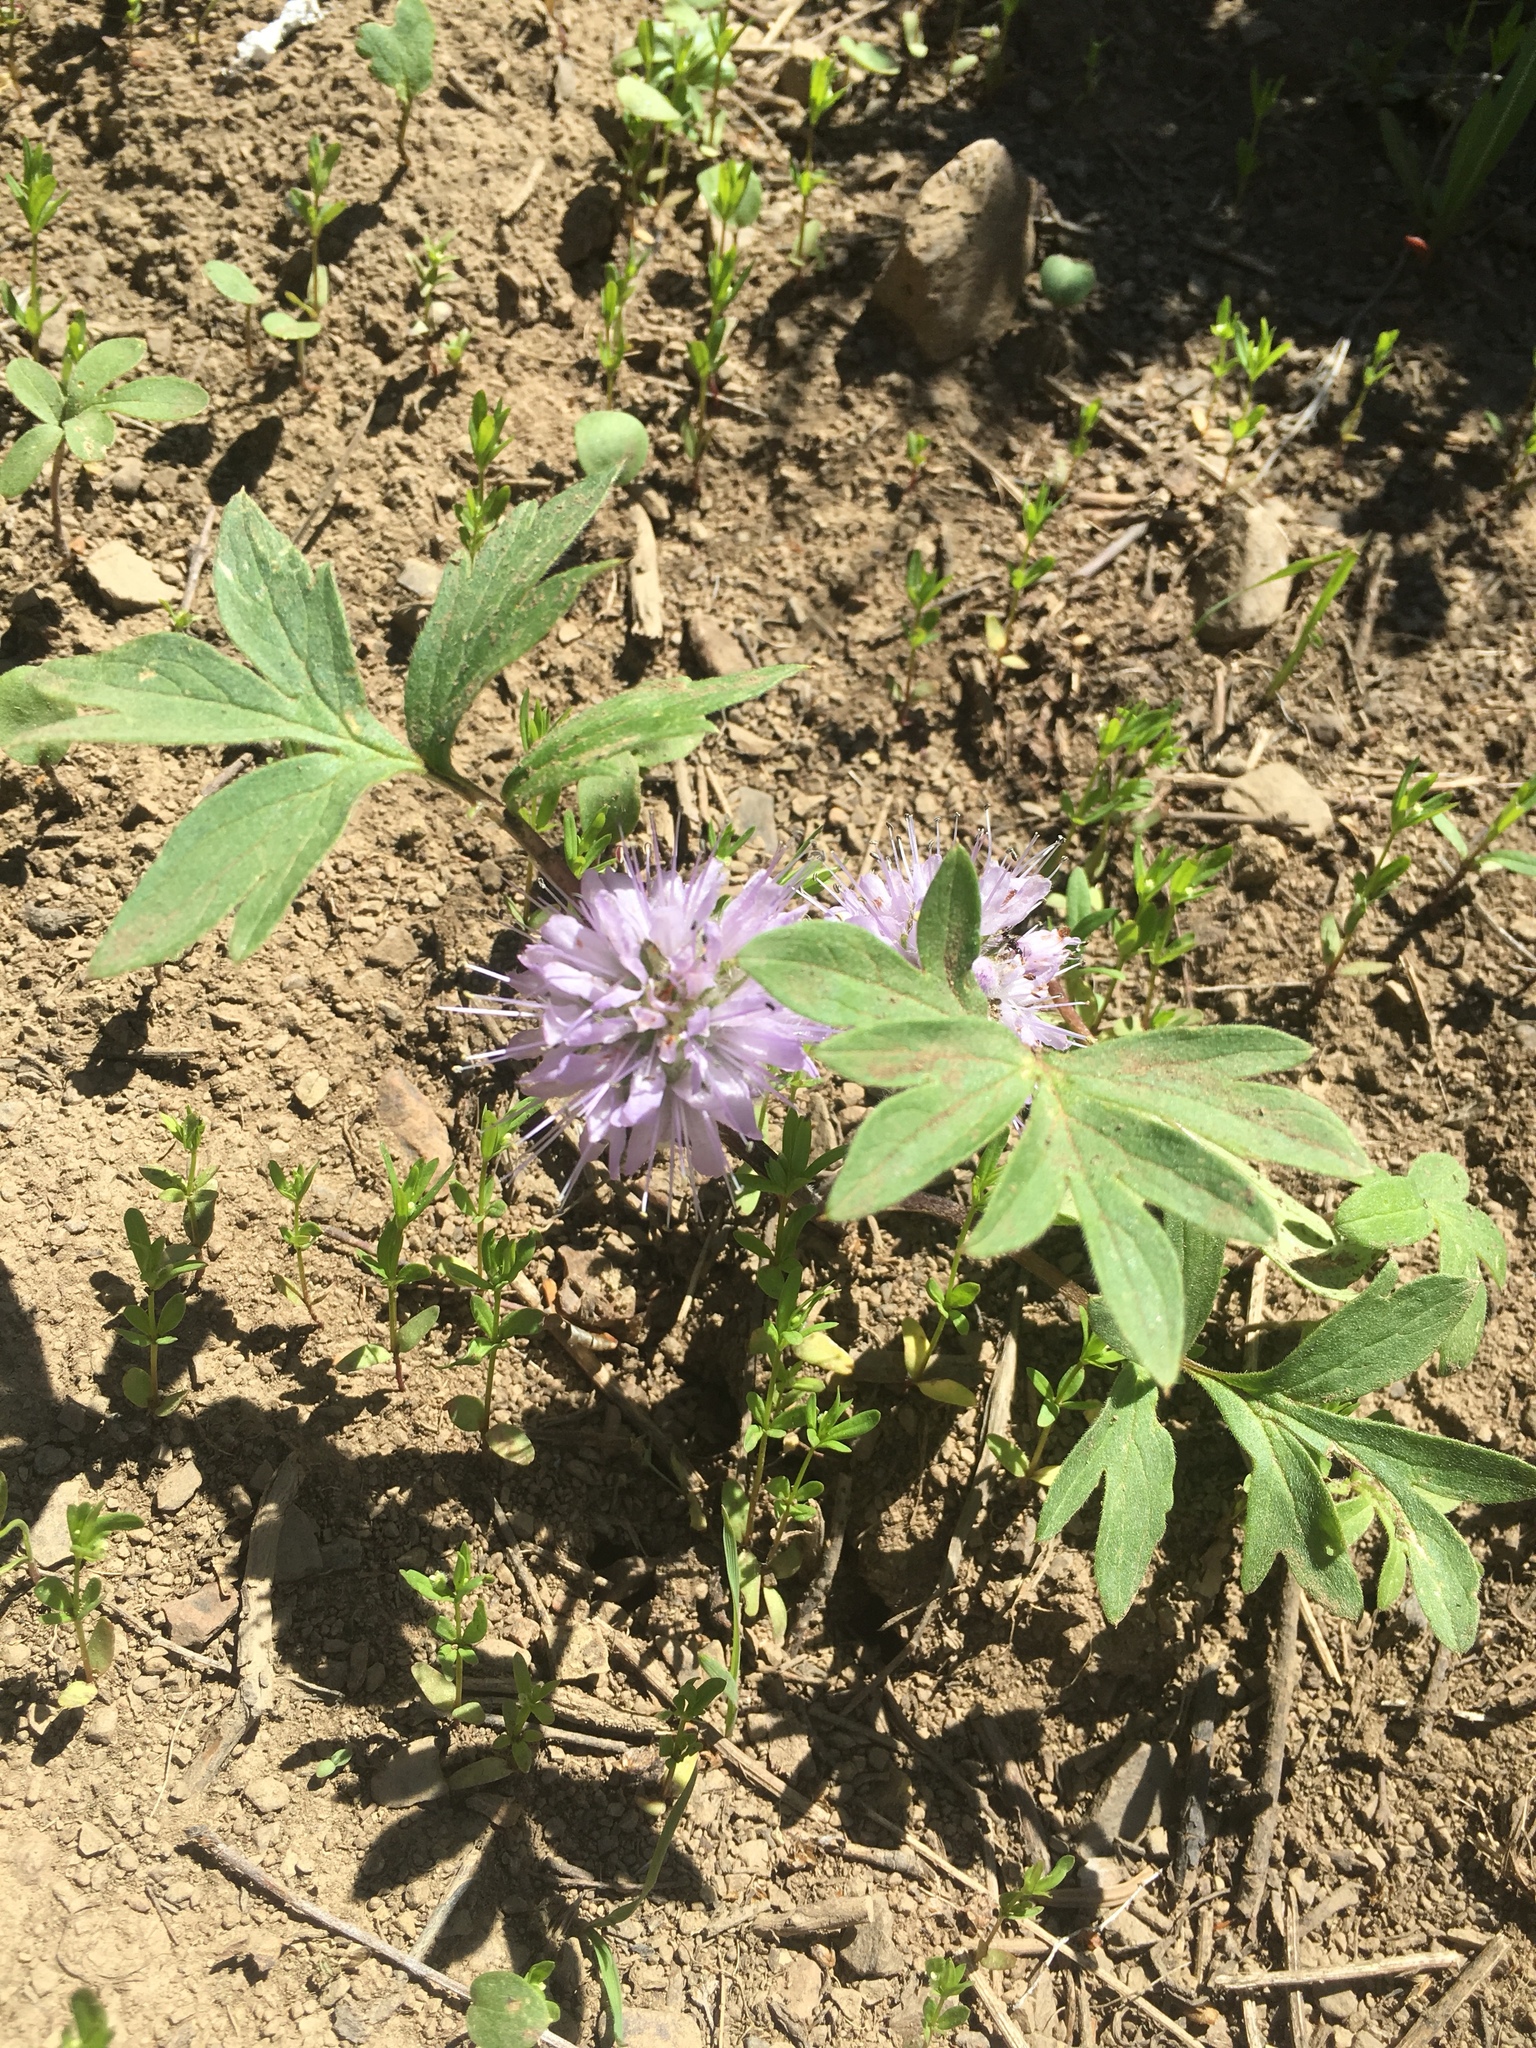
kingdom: Plantae
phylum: Tracheophyta
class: Magnoliopsida
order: Boraginales
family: Hydrophyllaceae
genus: Hydrophyllum
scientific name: Hydrophyllum capitatum
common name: Woollen-breeches
